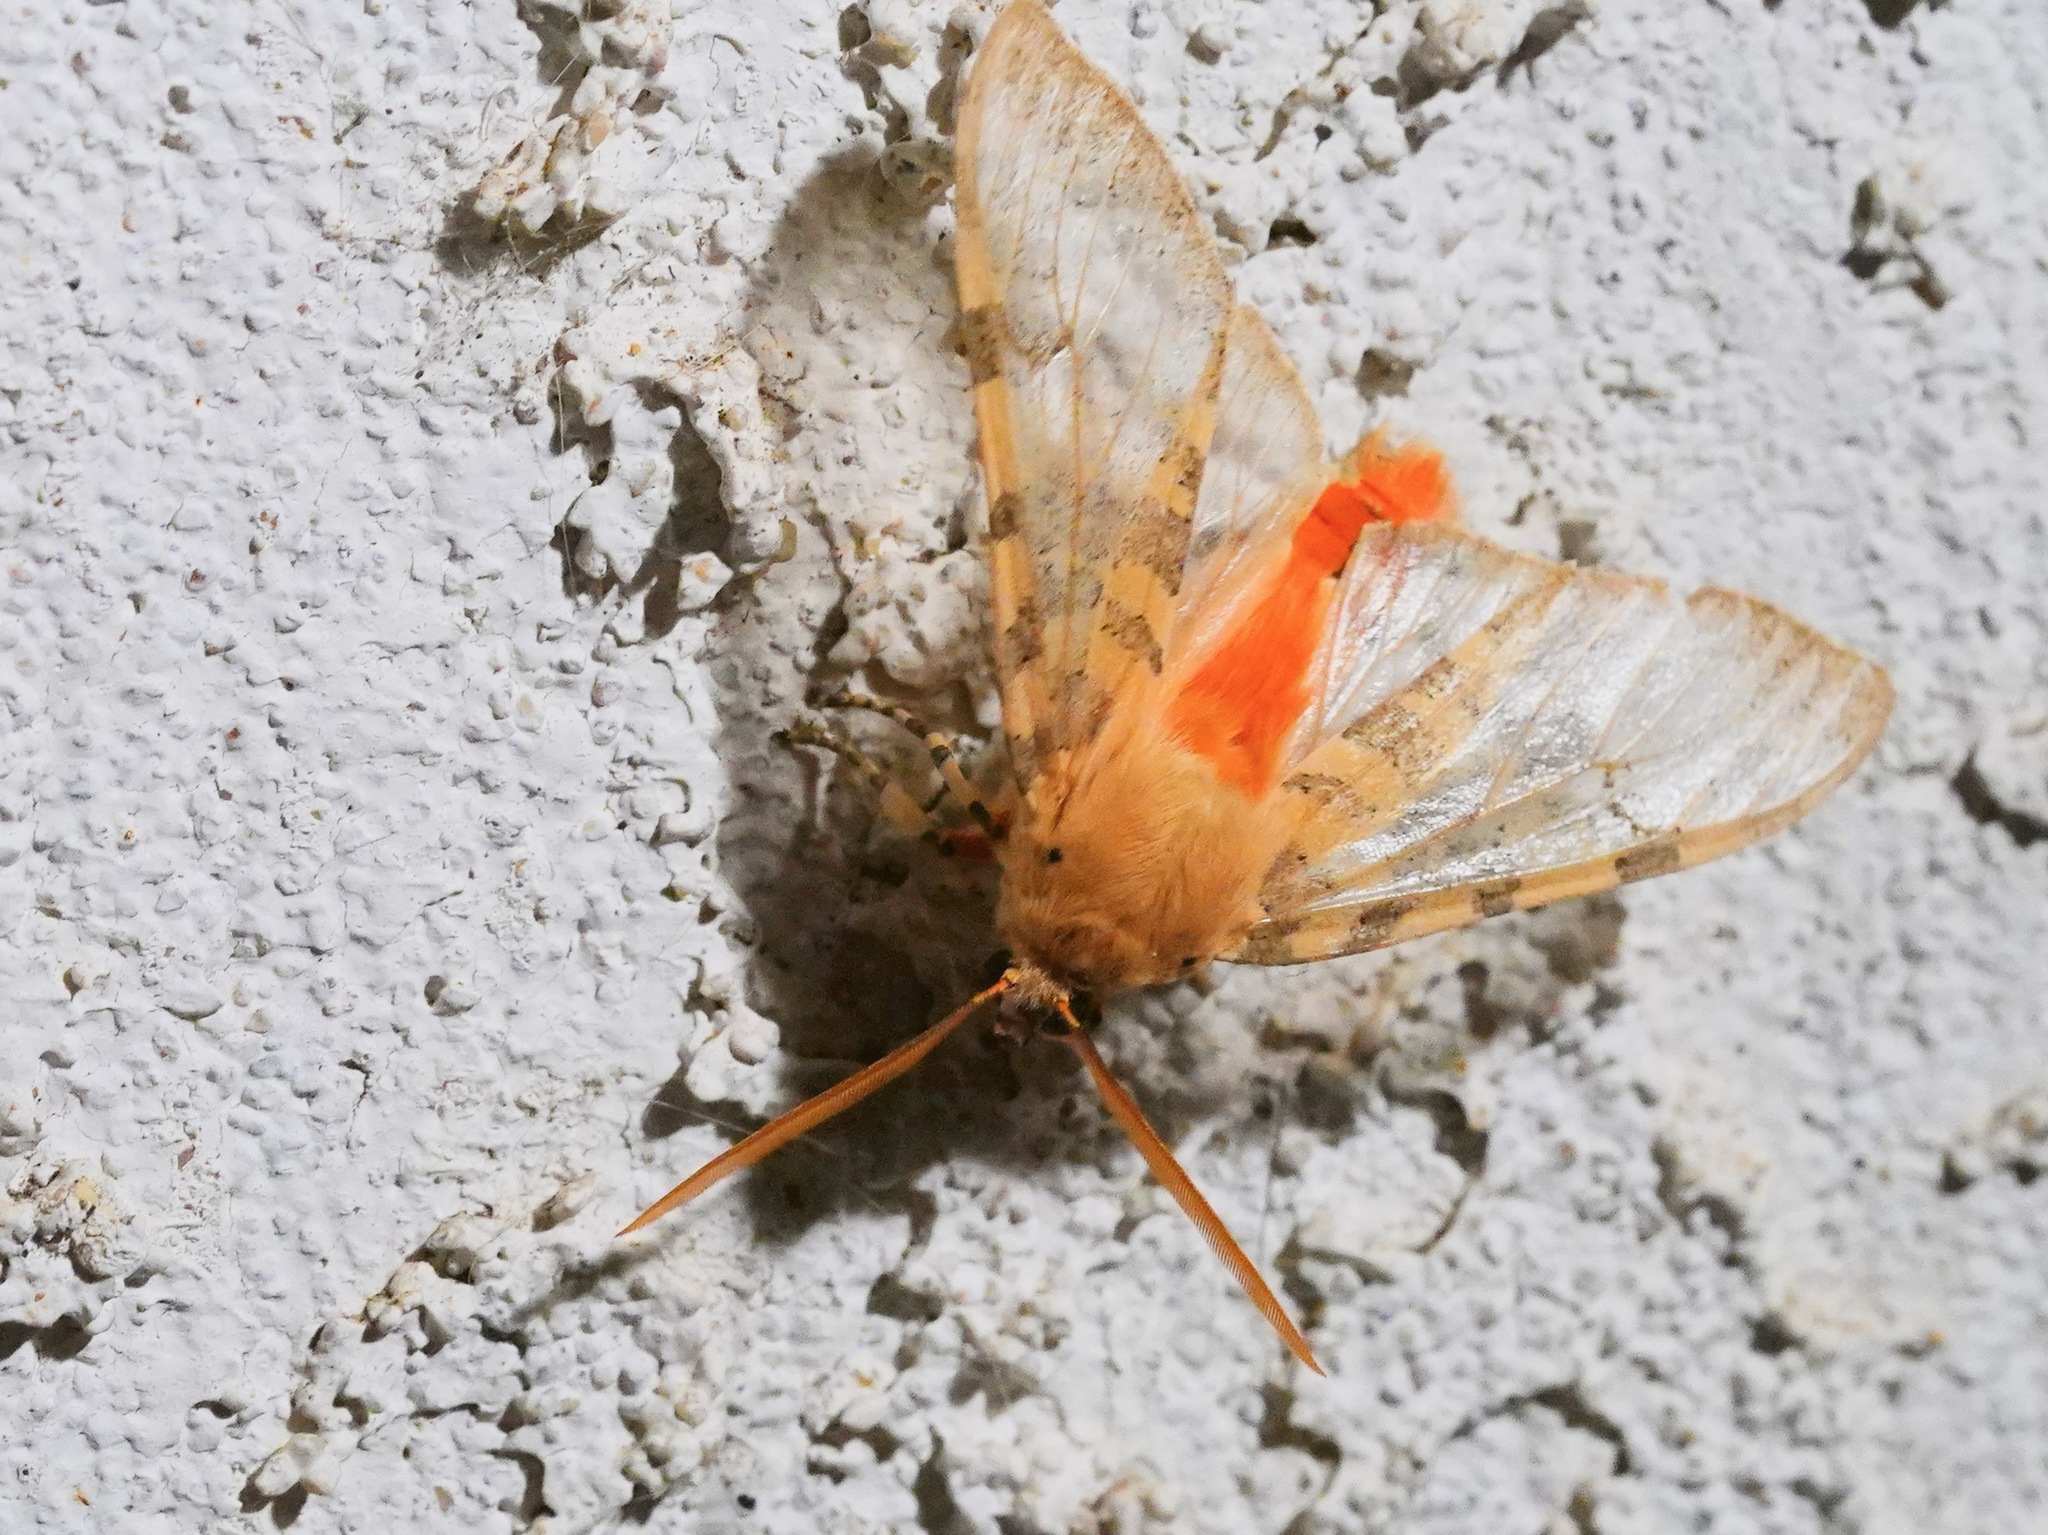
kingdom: Animalia
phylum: Arthropoda
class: Insecta
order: Lepidoptera
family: Erebidae
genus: Hemihyalea
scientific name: Hemihyalea edwardsii
